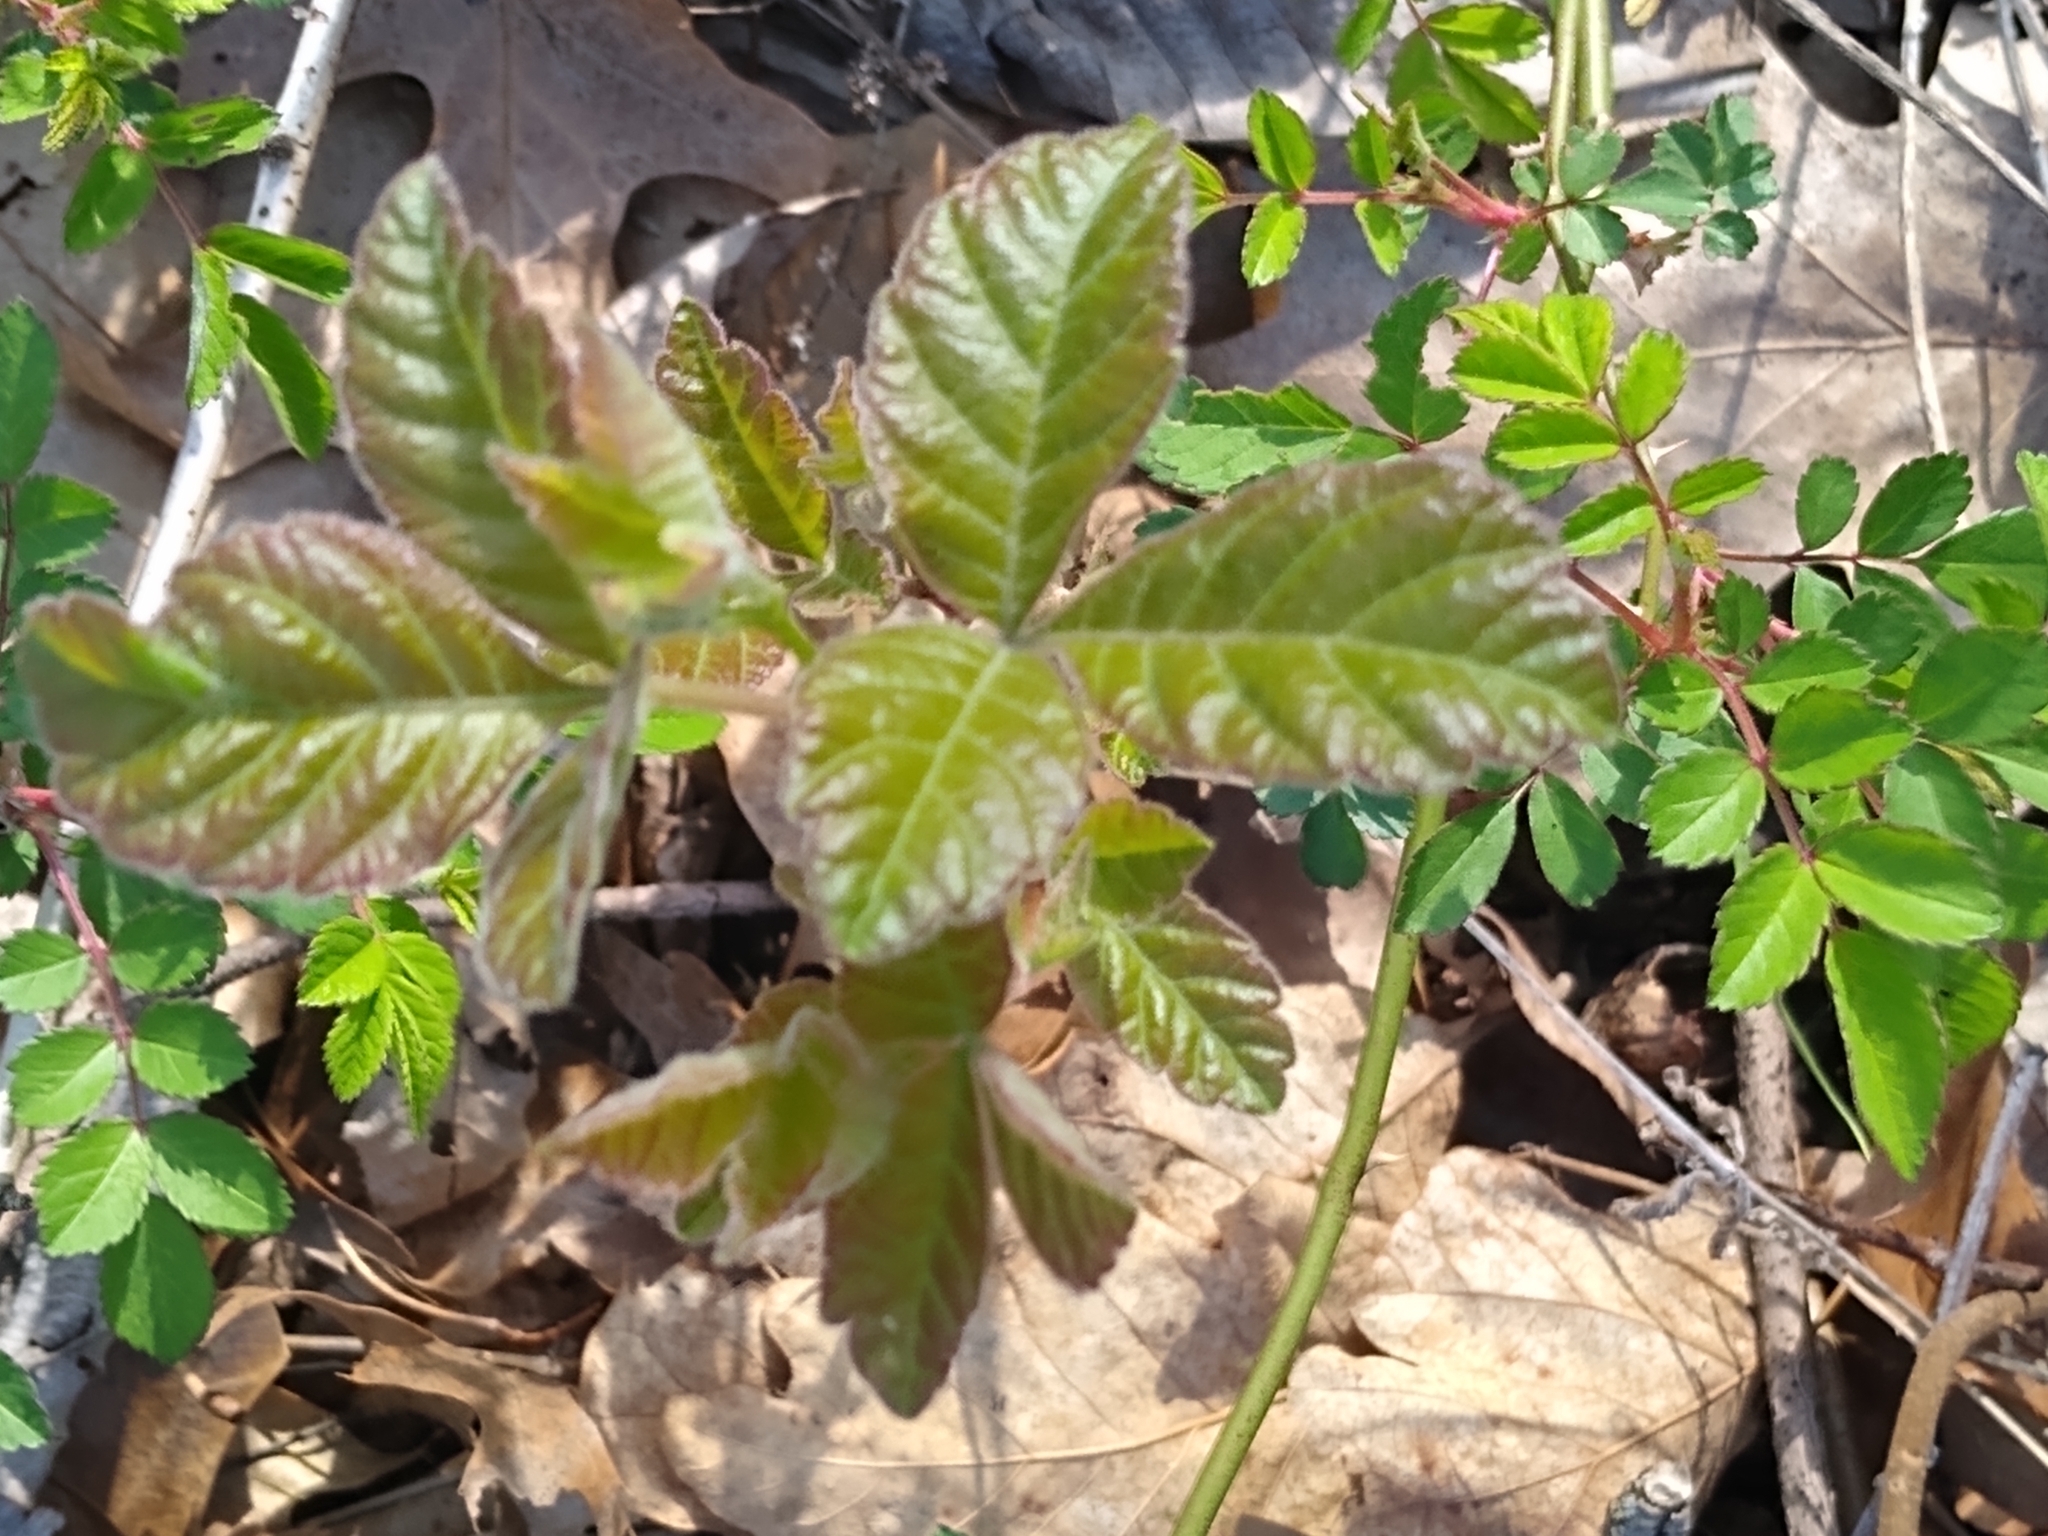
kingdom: Plantae
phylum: Tracheophyta
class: Magnoliopsida
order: Sapindales
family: Anacardiaceae
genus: Toxicodendron
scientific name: Toxicodendron radicans
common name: Poison ivy
